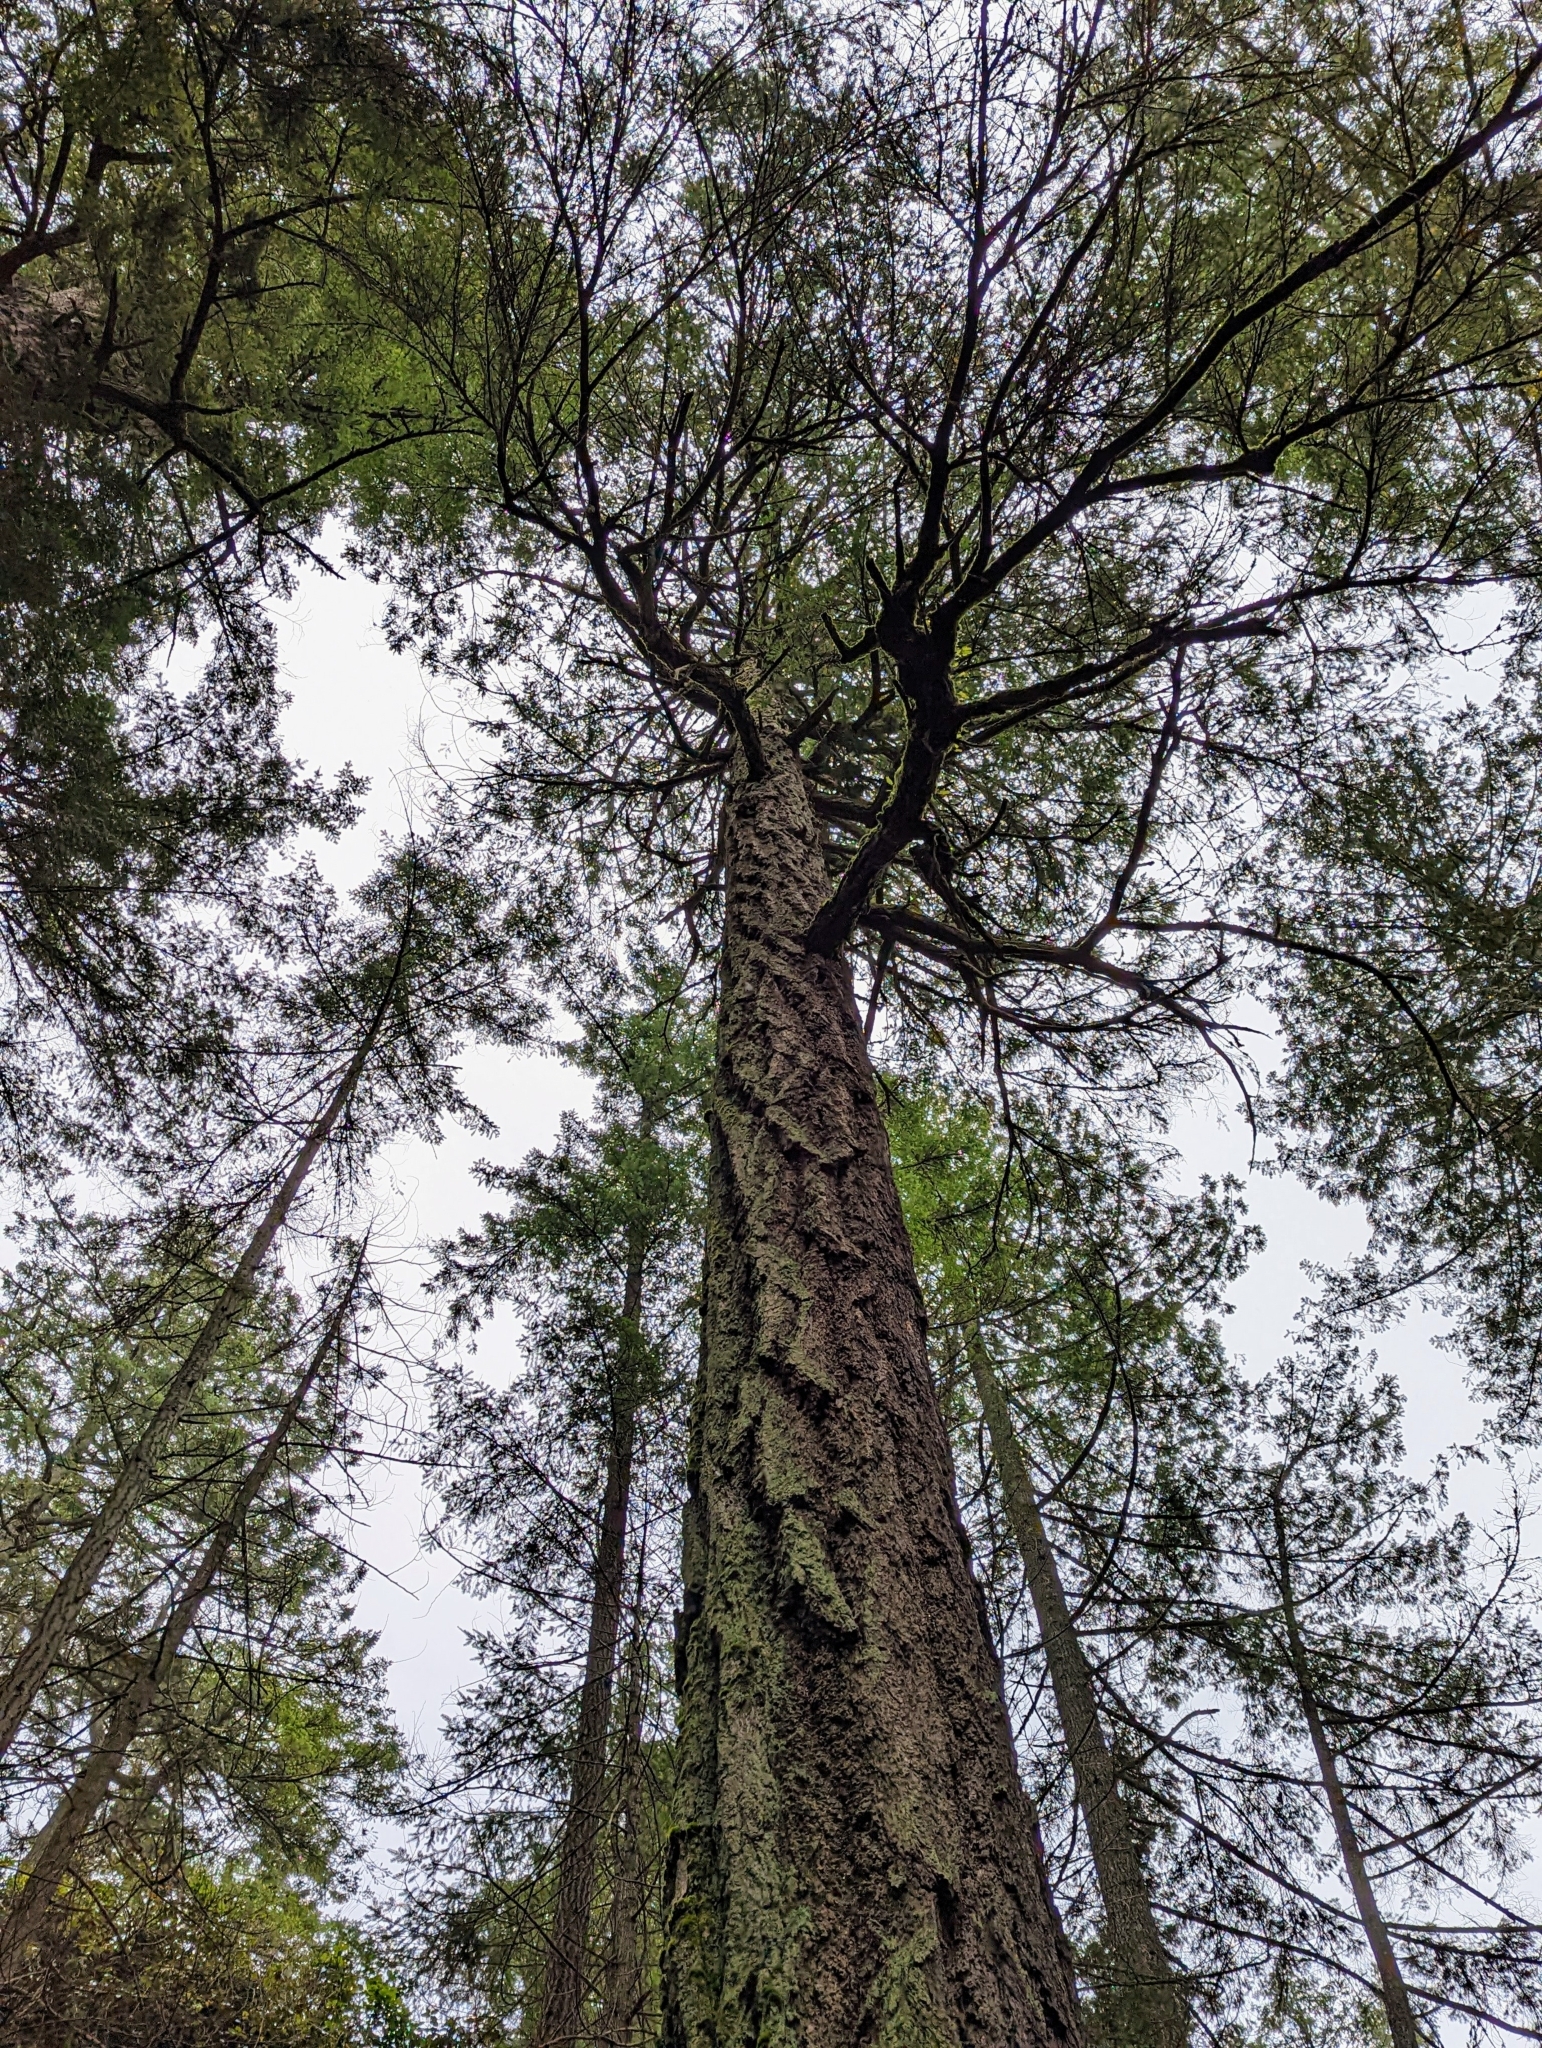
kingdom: Plantae
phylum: Tracheophyta
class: Pinopsida
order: Pinales
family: Pinaceae
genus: Pseudotsuga
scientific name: Pseudotsuga menziesii
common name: Douglas fir
